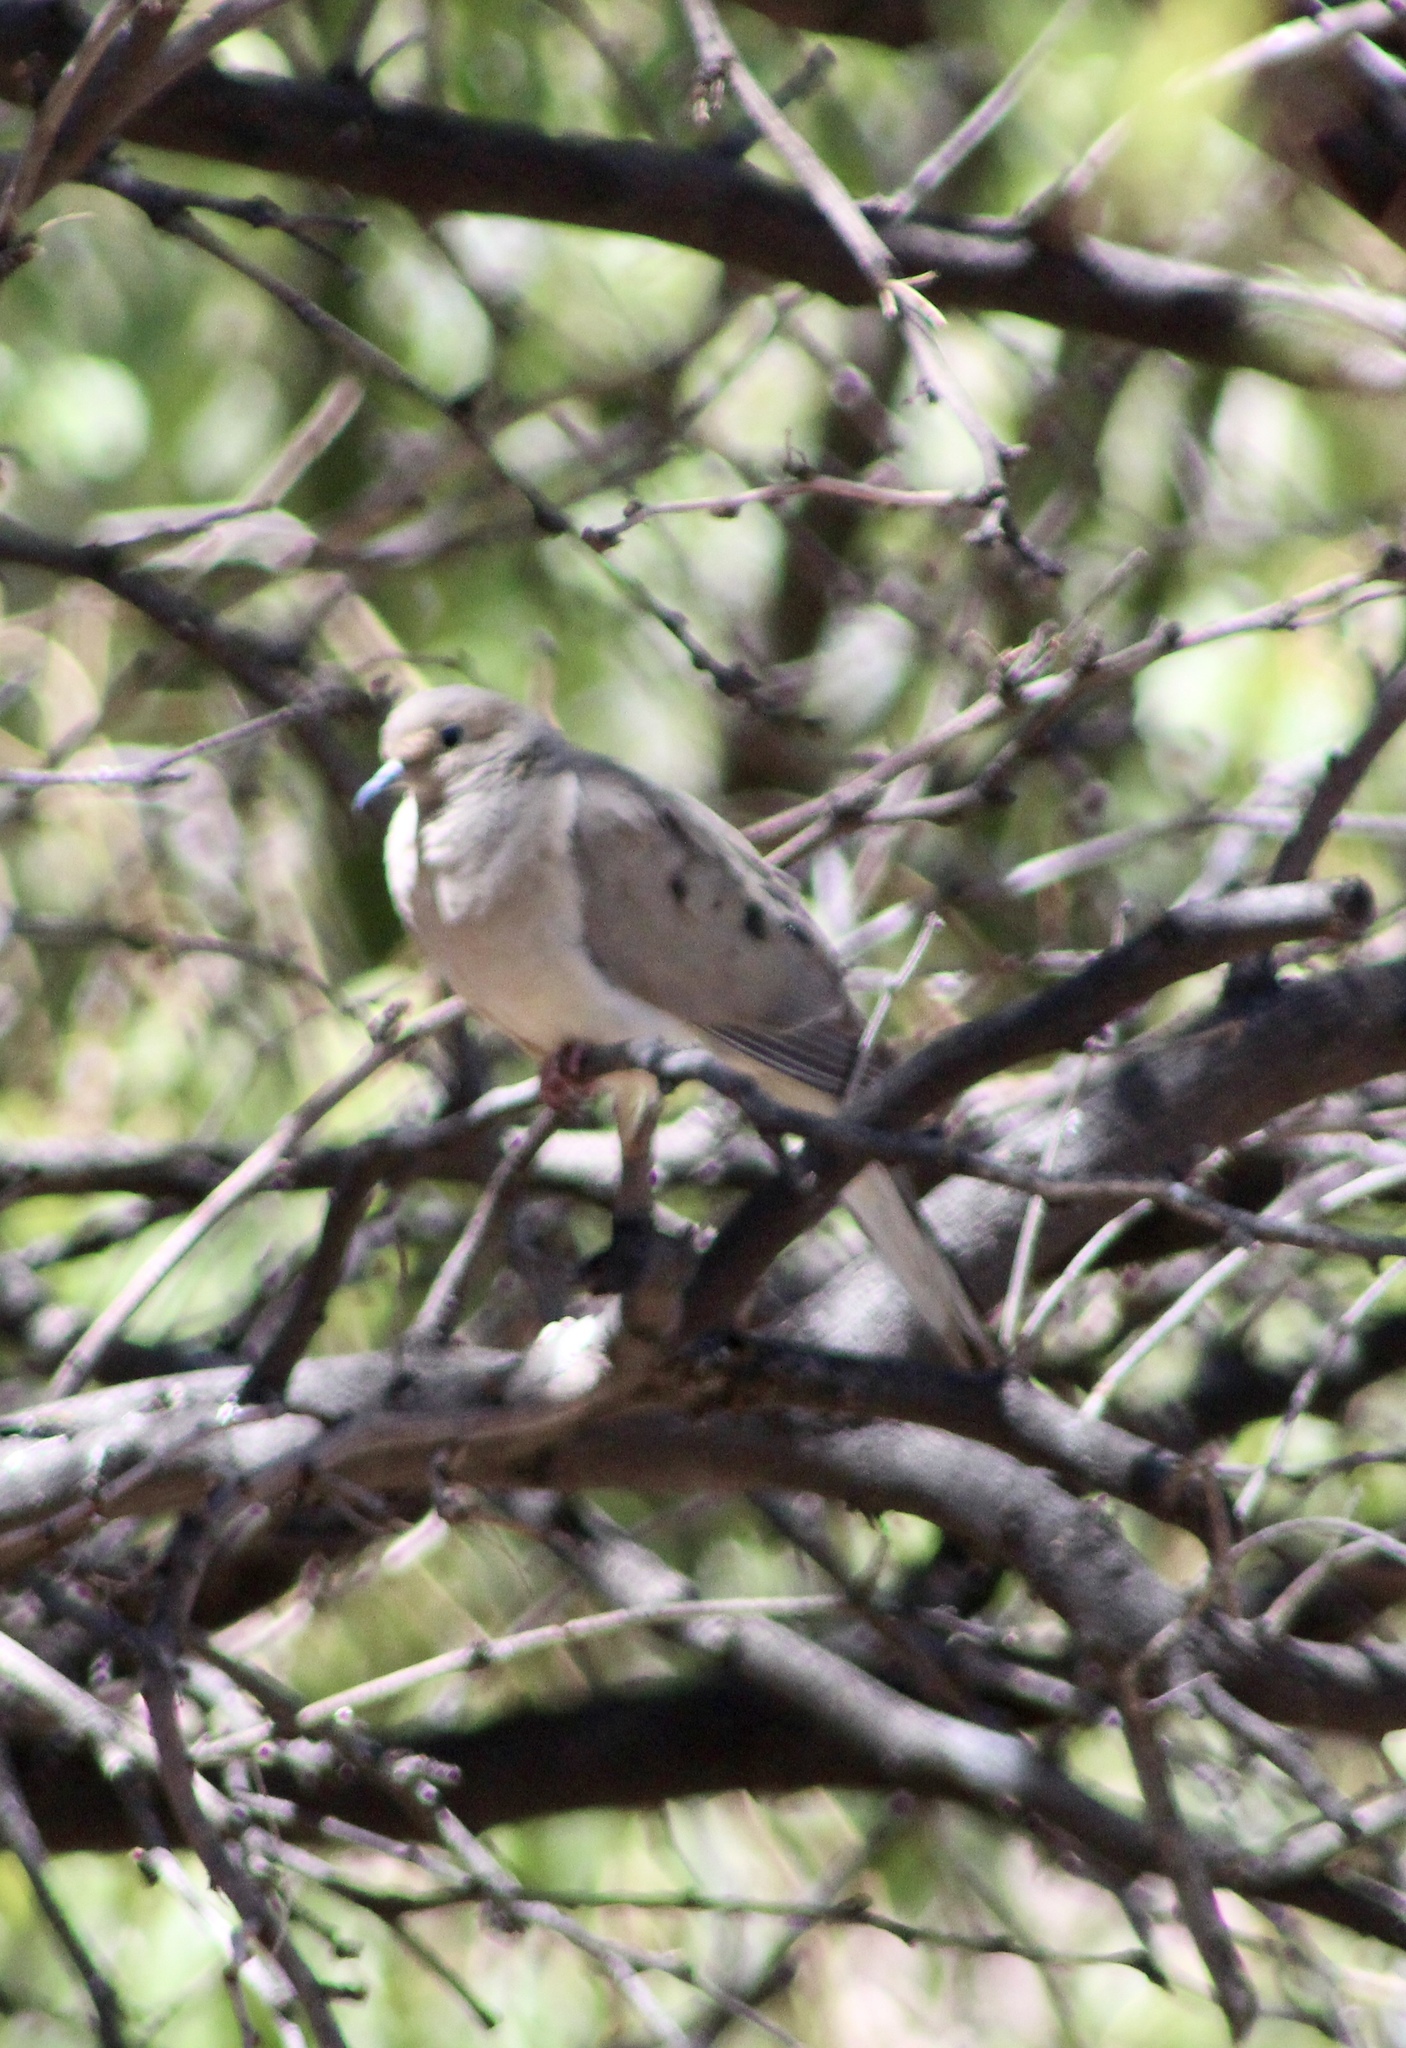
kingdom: Animalia
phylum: Chordata
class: Aves
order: Columbiformes
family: Columbidae
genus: Zenaida
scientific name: Zenaida macroura
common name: Mourning dove
